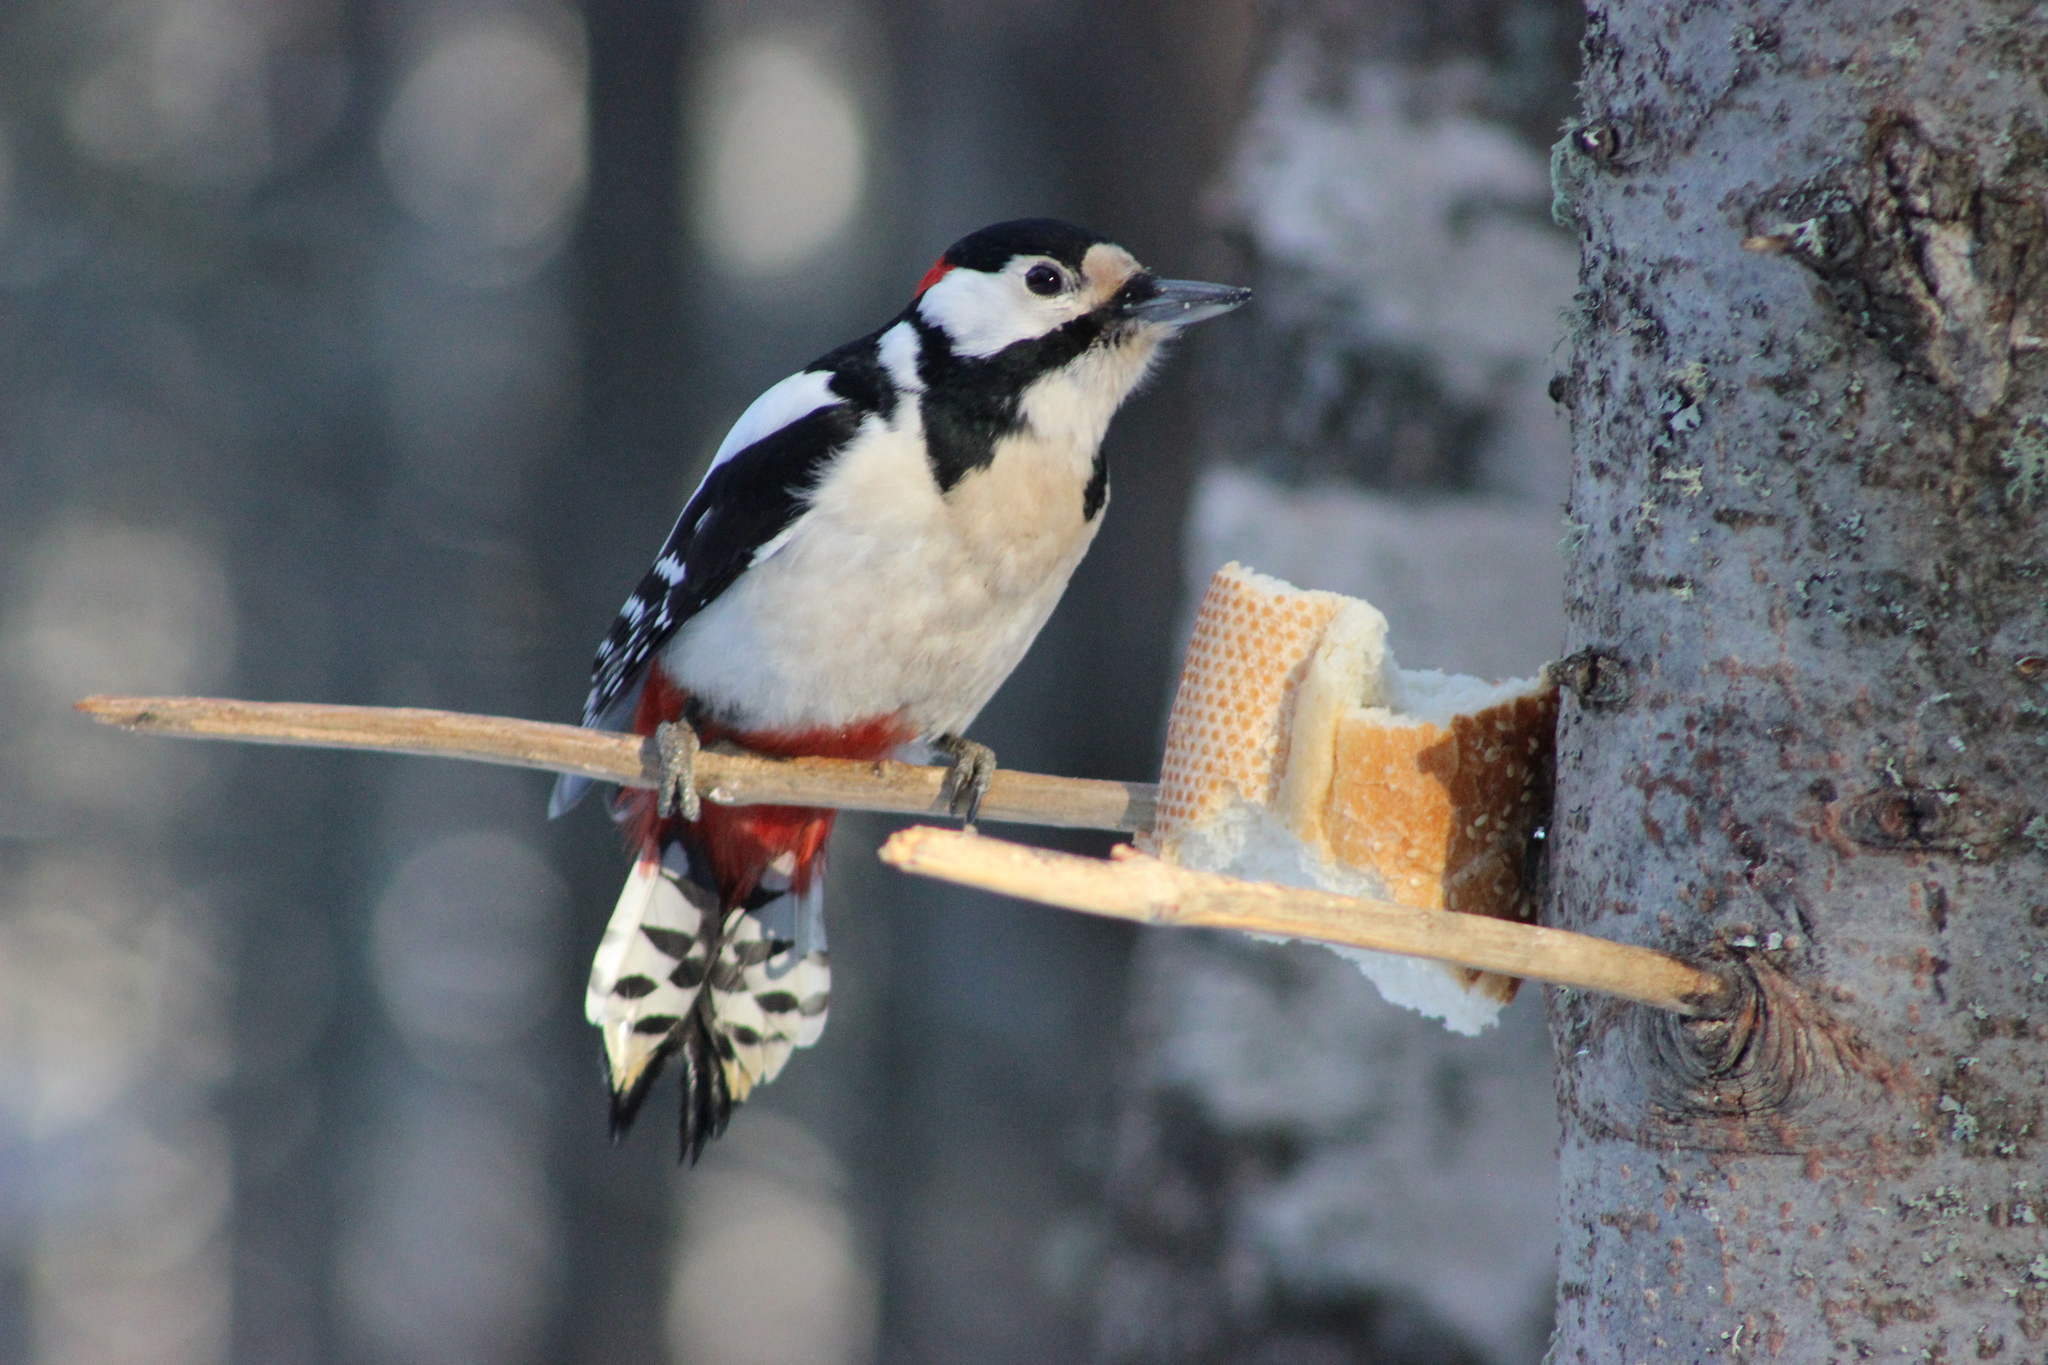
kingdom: Animalia
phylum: Chordata
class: Aves
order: Piciformes
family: Picidae
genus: Dendrocopos
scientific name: Dendrocopos major
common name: Great spotted woodpecker
